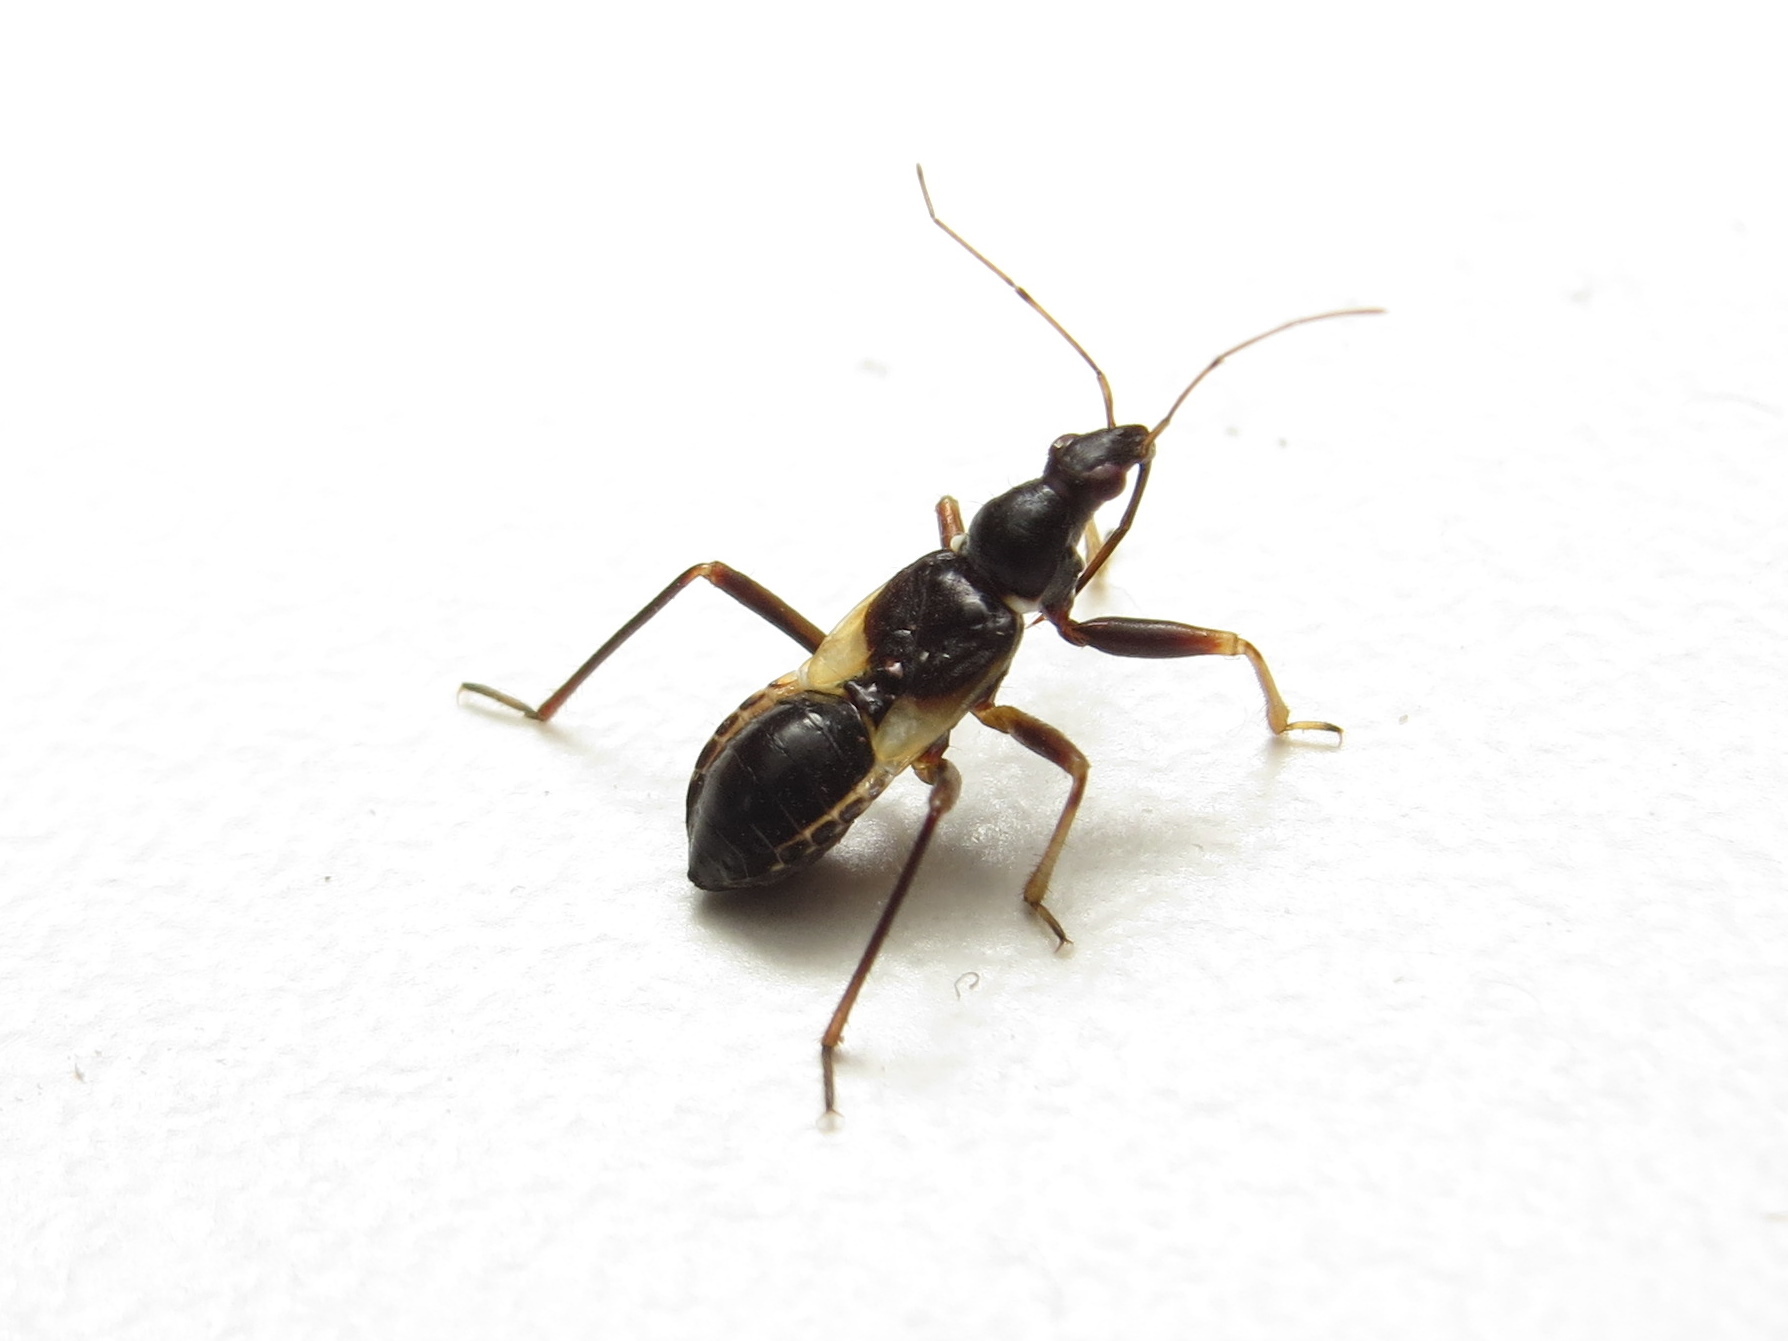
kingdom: Animalia
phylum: Arthropoda
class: Insecta
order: Hemiptera
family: Nabidae
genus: Himacerus
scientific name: Himacerus mirmicoides
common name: Ant damsel bug
